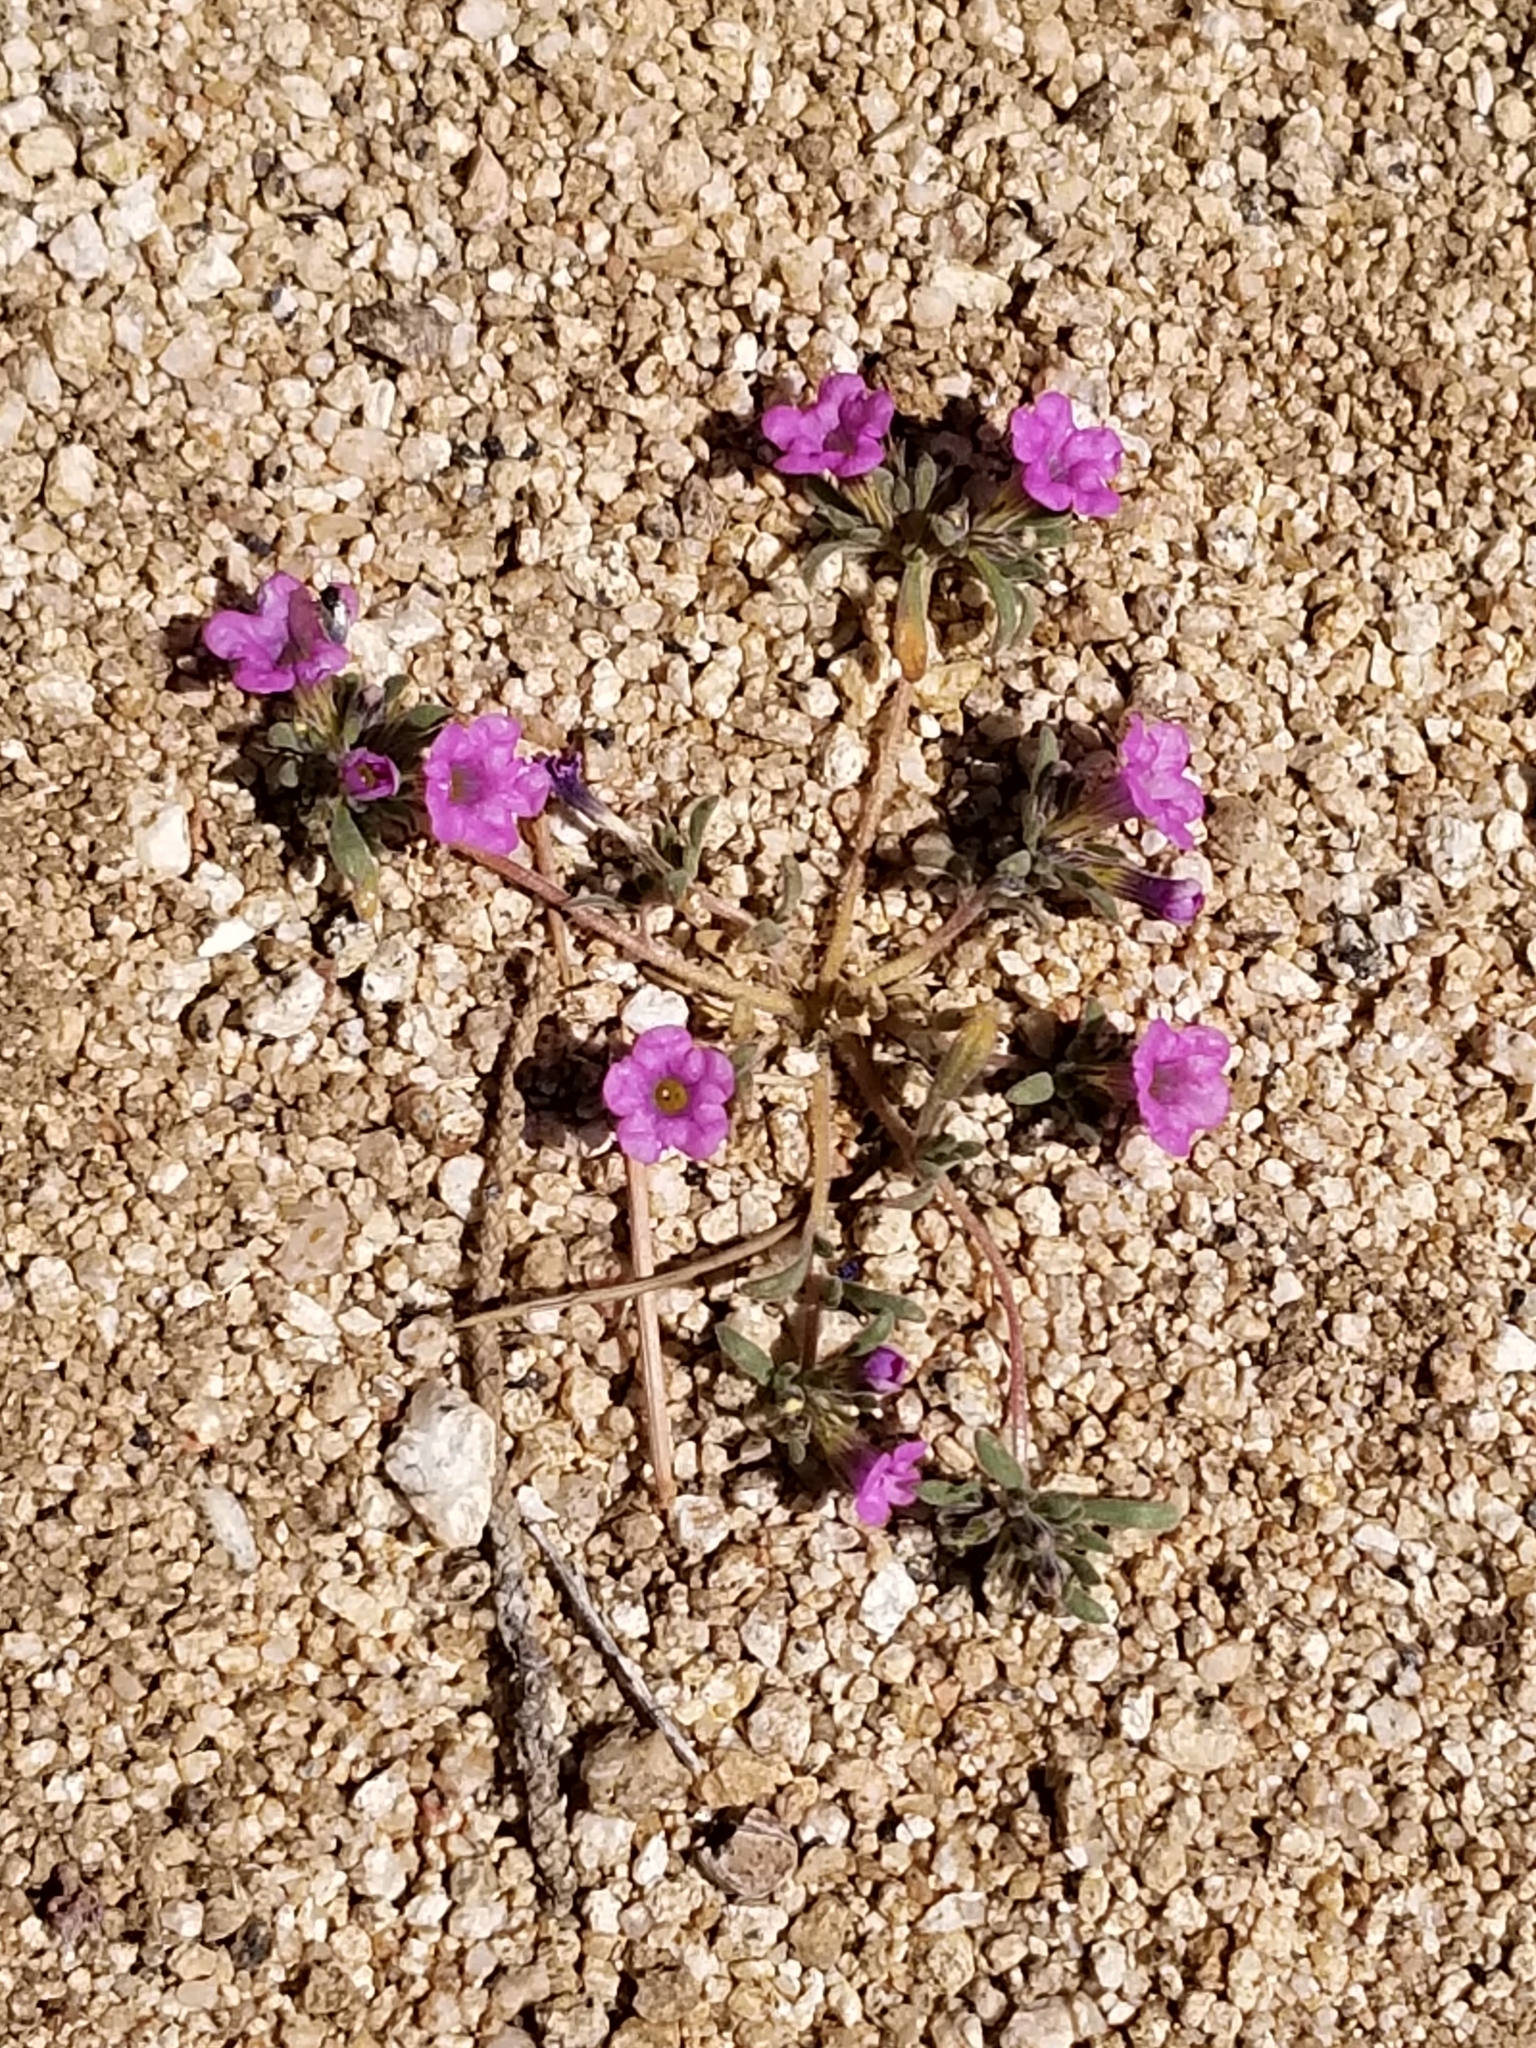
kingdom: Plantae
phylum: Tracheophyta
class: Magnoliopsida
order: Boraginales
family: Namaceae
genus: Nama
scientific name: Nama demissa
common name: Leafy nama
